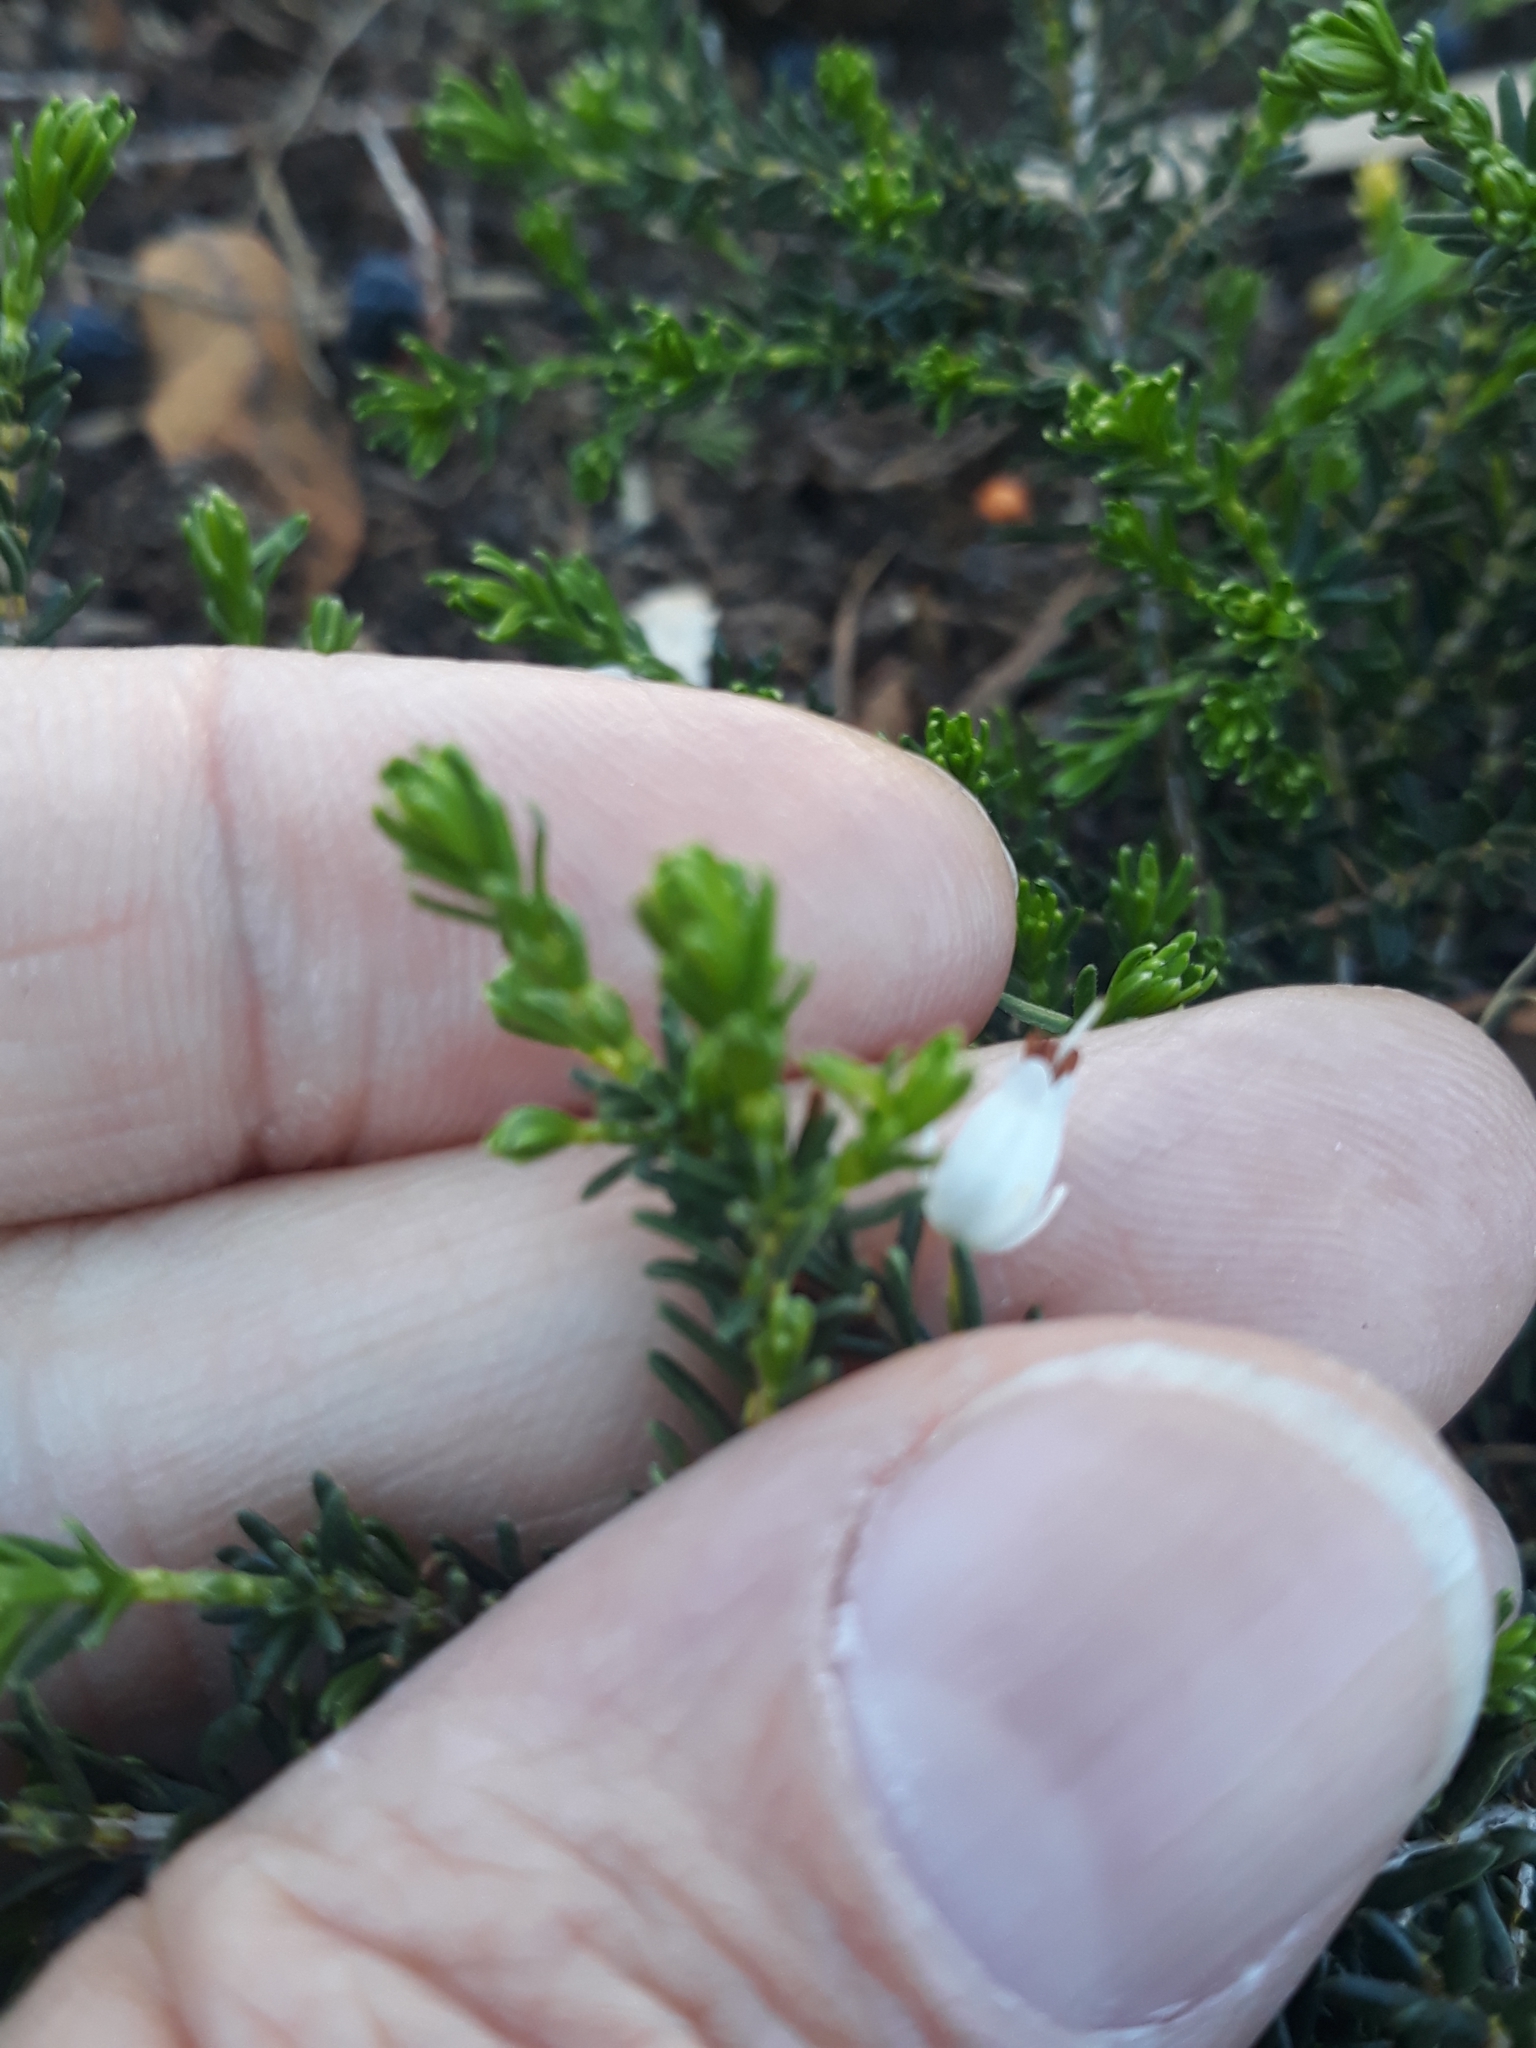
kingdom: Plantae
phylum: Tracheophyta
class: Magnoliopsida
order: Ericales
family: Ericaceae
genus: Calluna
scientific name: Calluna vulgaris
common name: Heather
